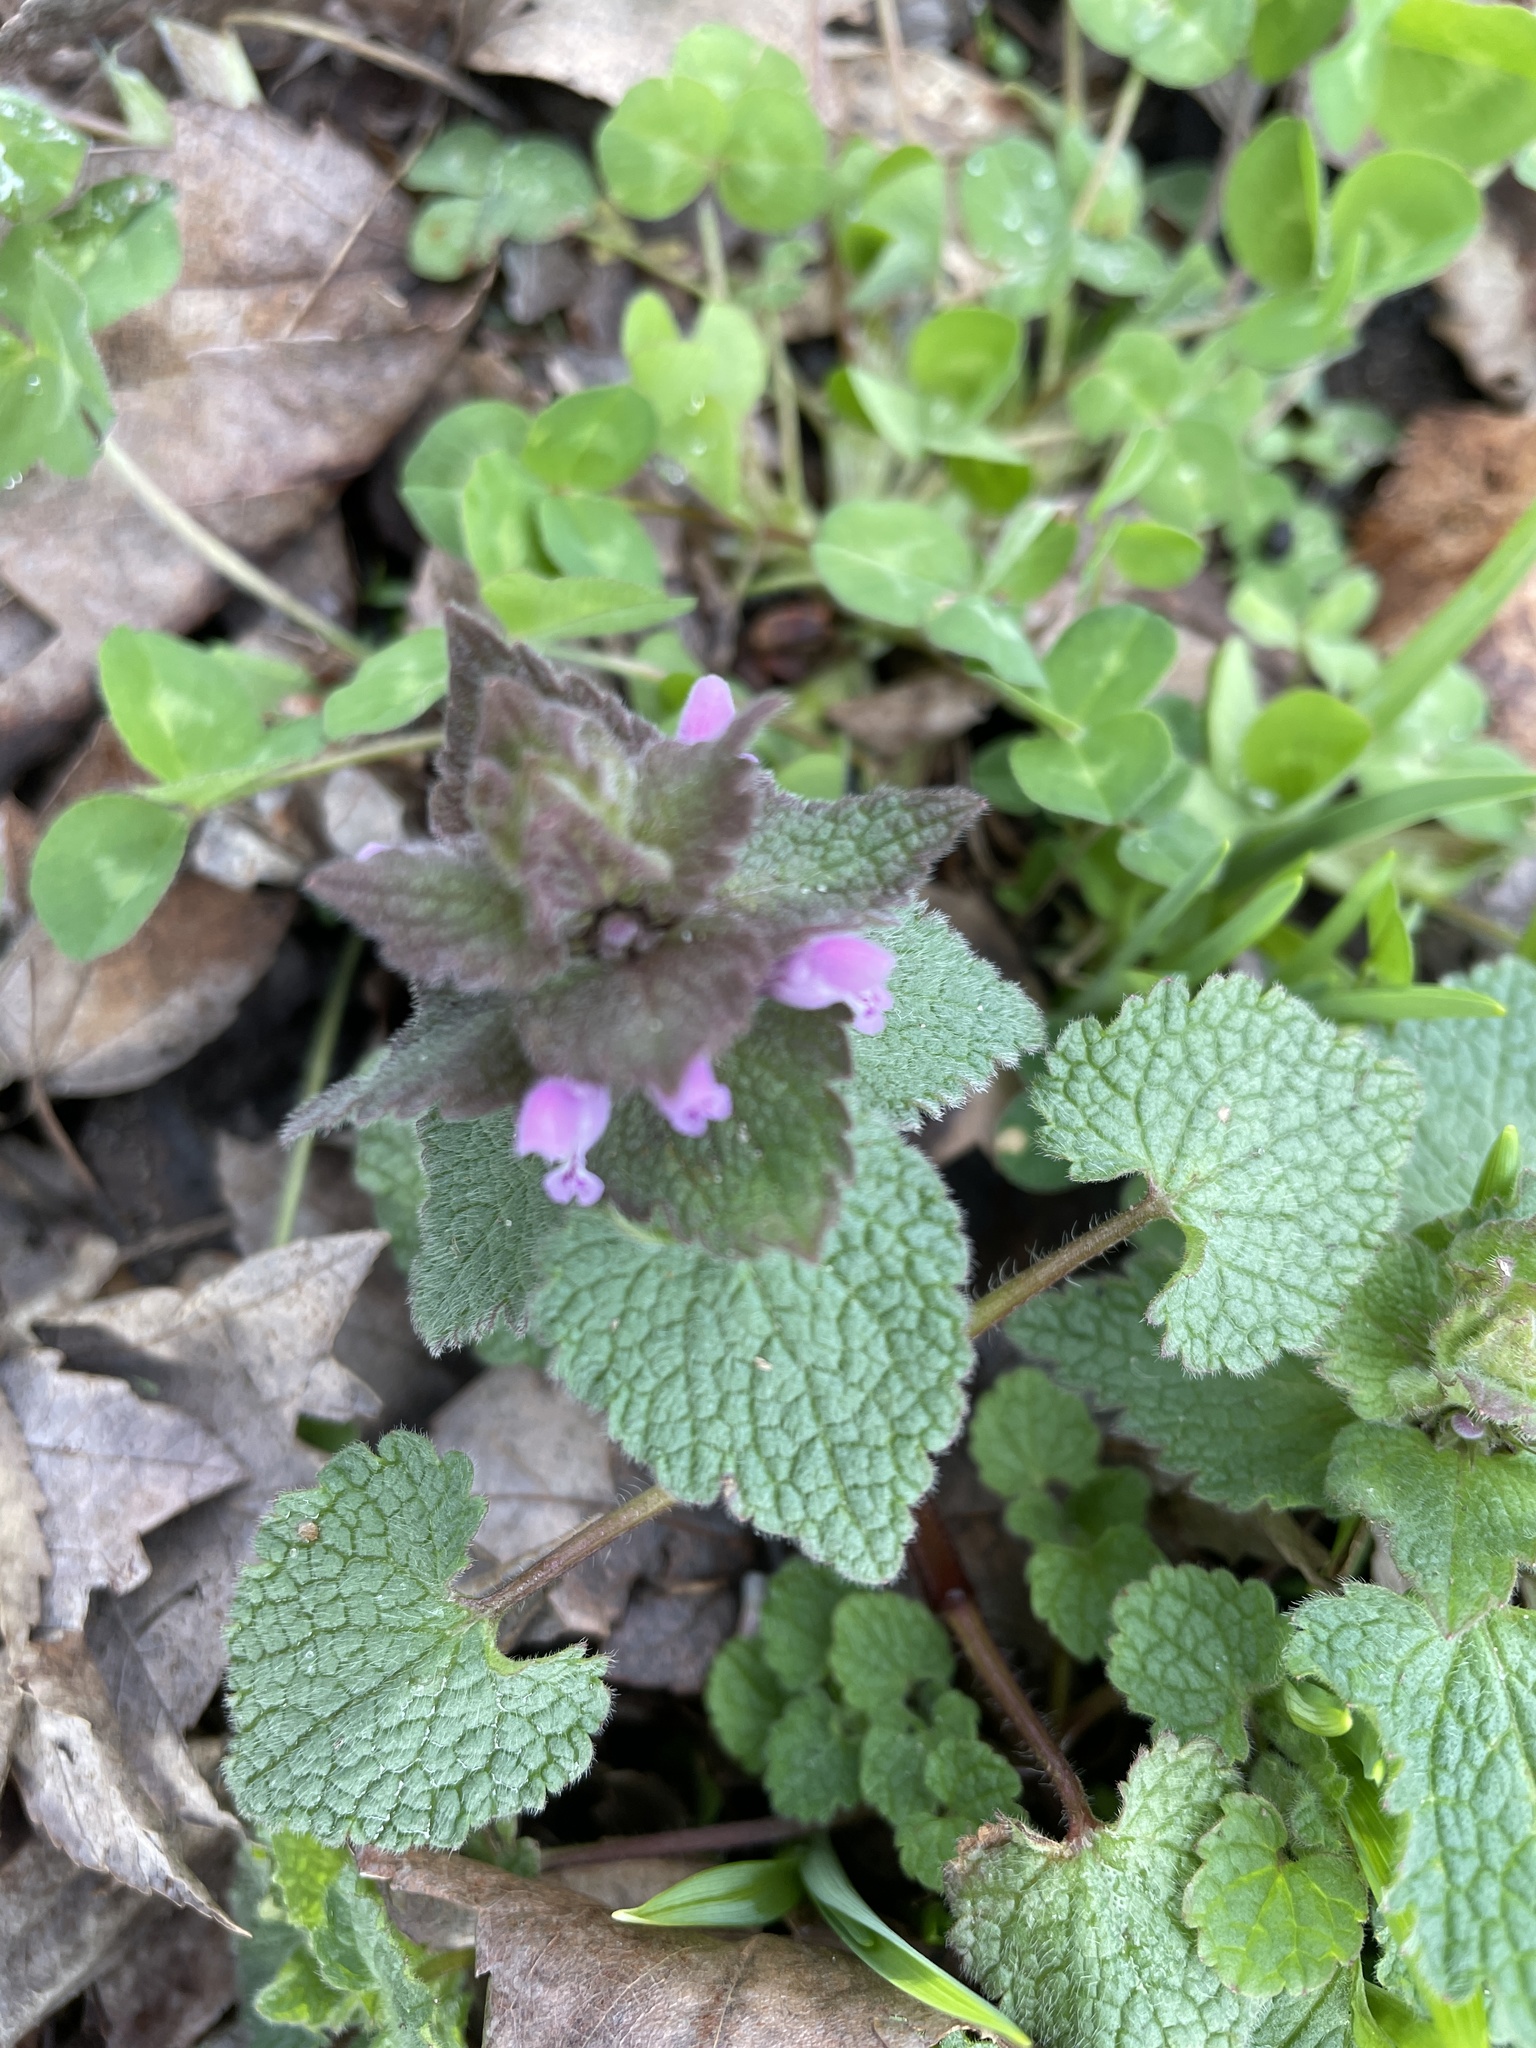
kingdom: Plantae
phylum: Tracheophyta
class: Magnoliopsida
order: Lamiales
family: Lamiaceae
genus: Lamium
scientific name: Lamium purpureum
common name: Red dead-nettle
